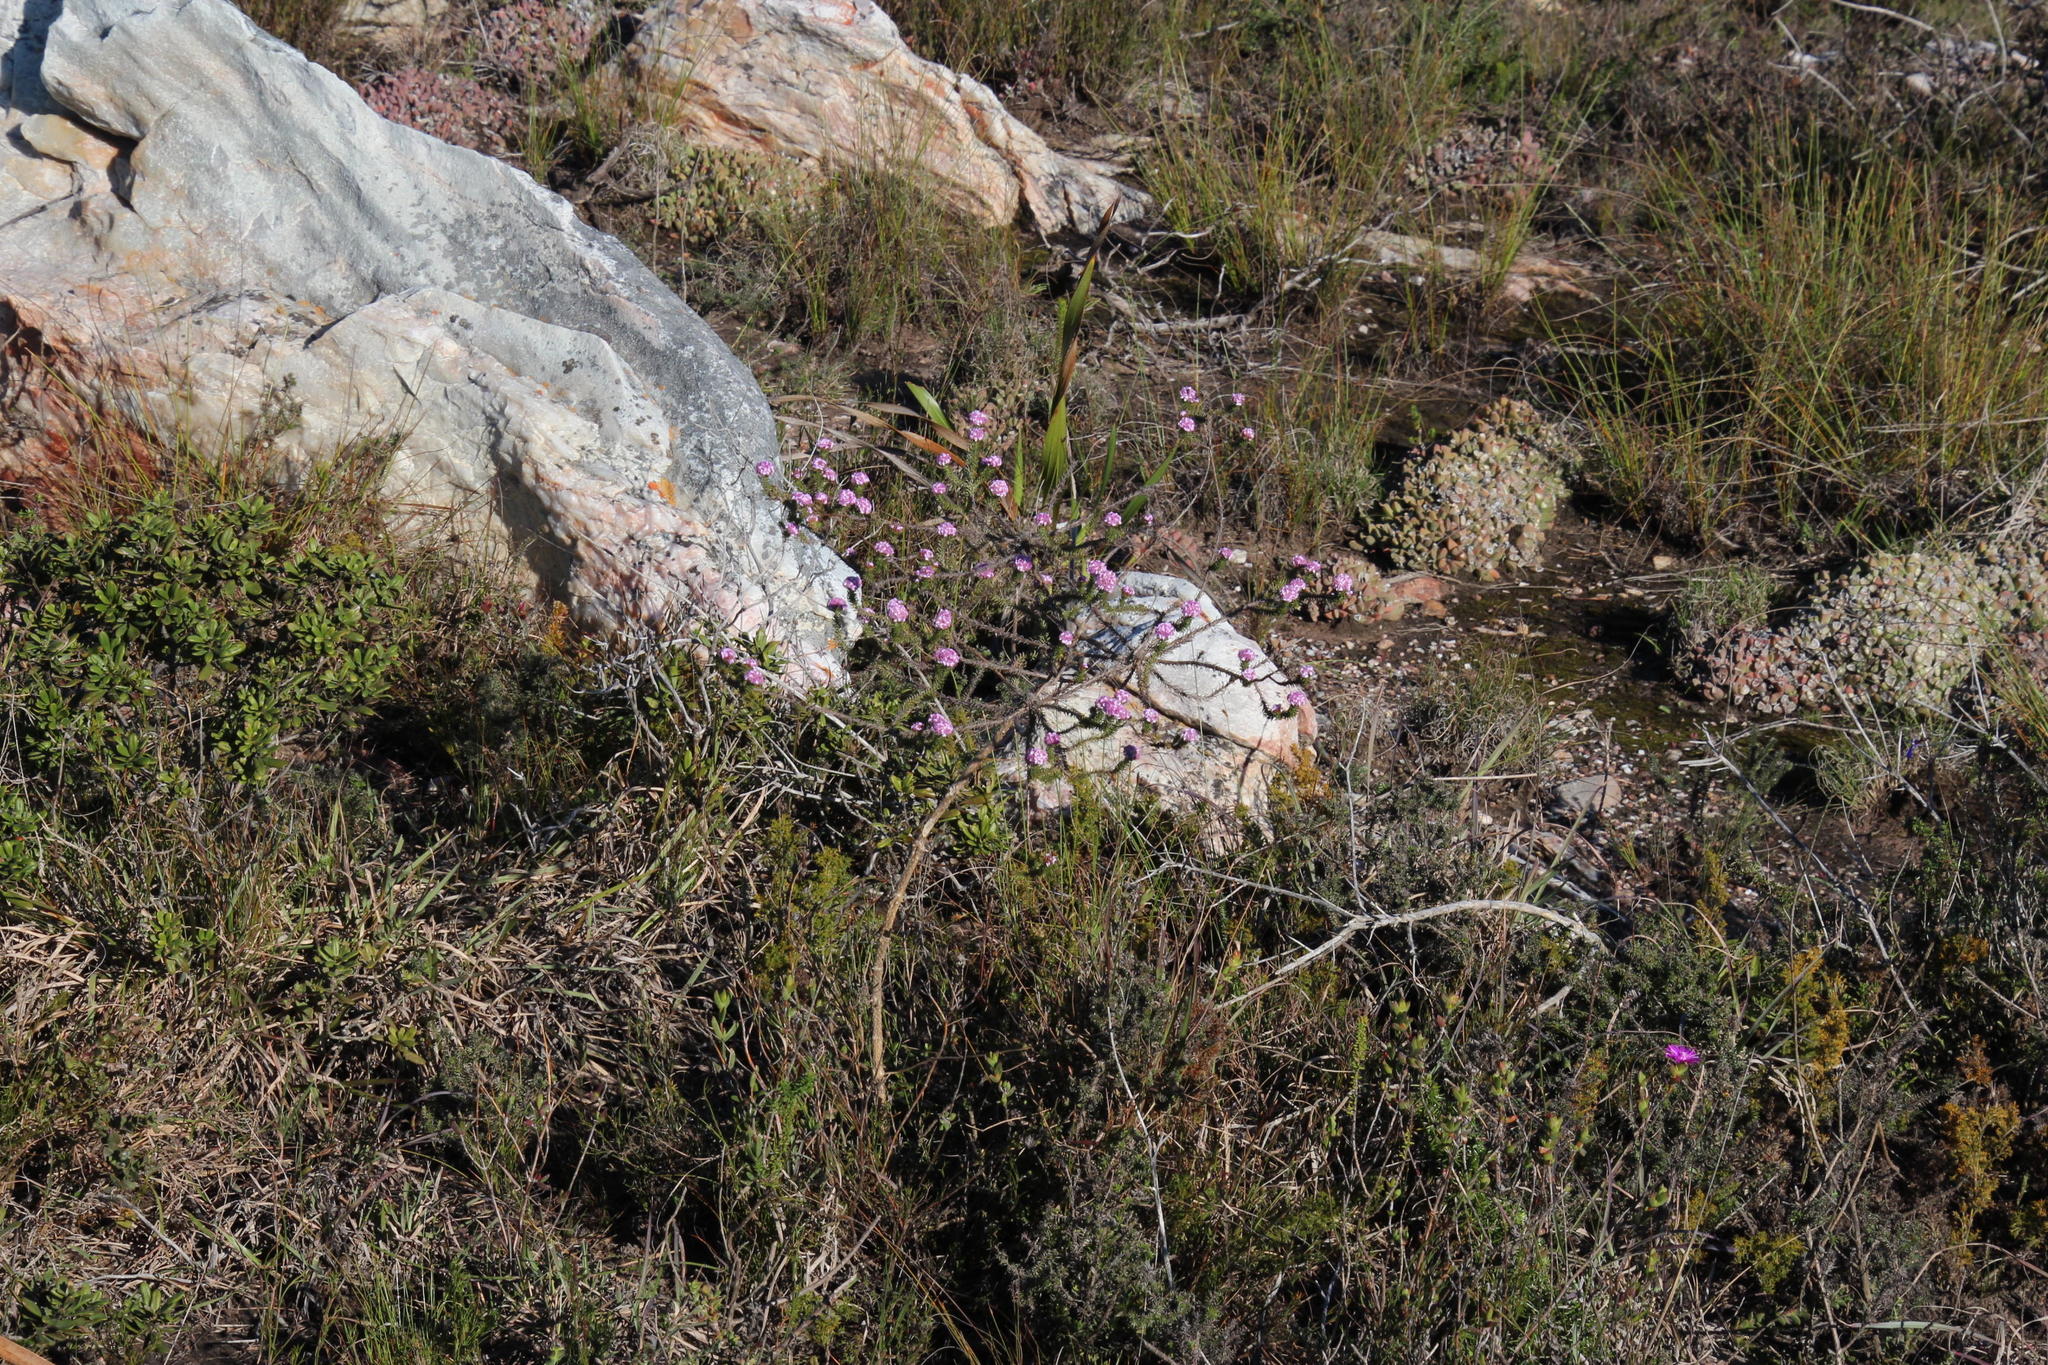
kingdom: Plantae
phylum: Tracheophyta
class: Magnoliopsida
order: Asterales
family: Asteraceae
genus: Disparago
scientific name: Disparago tortilis
